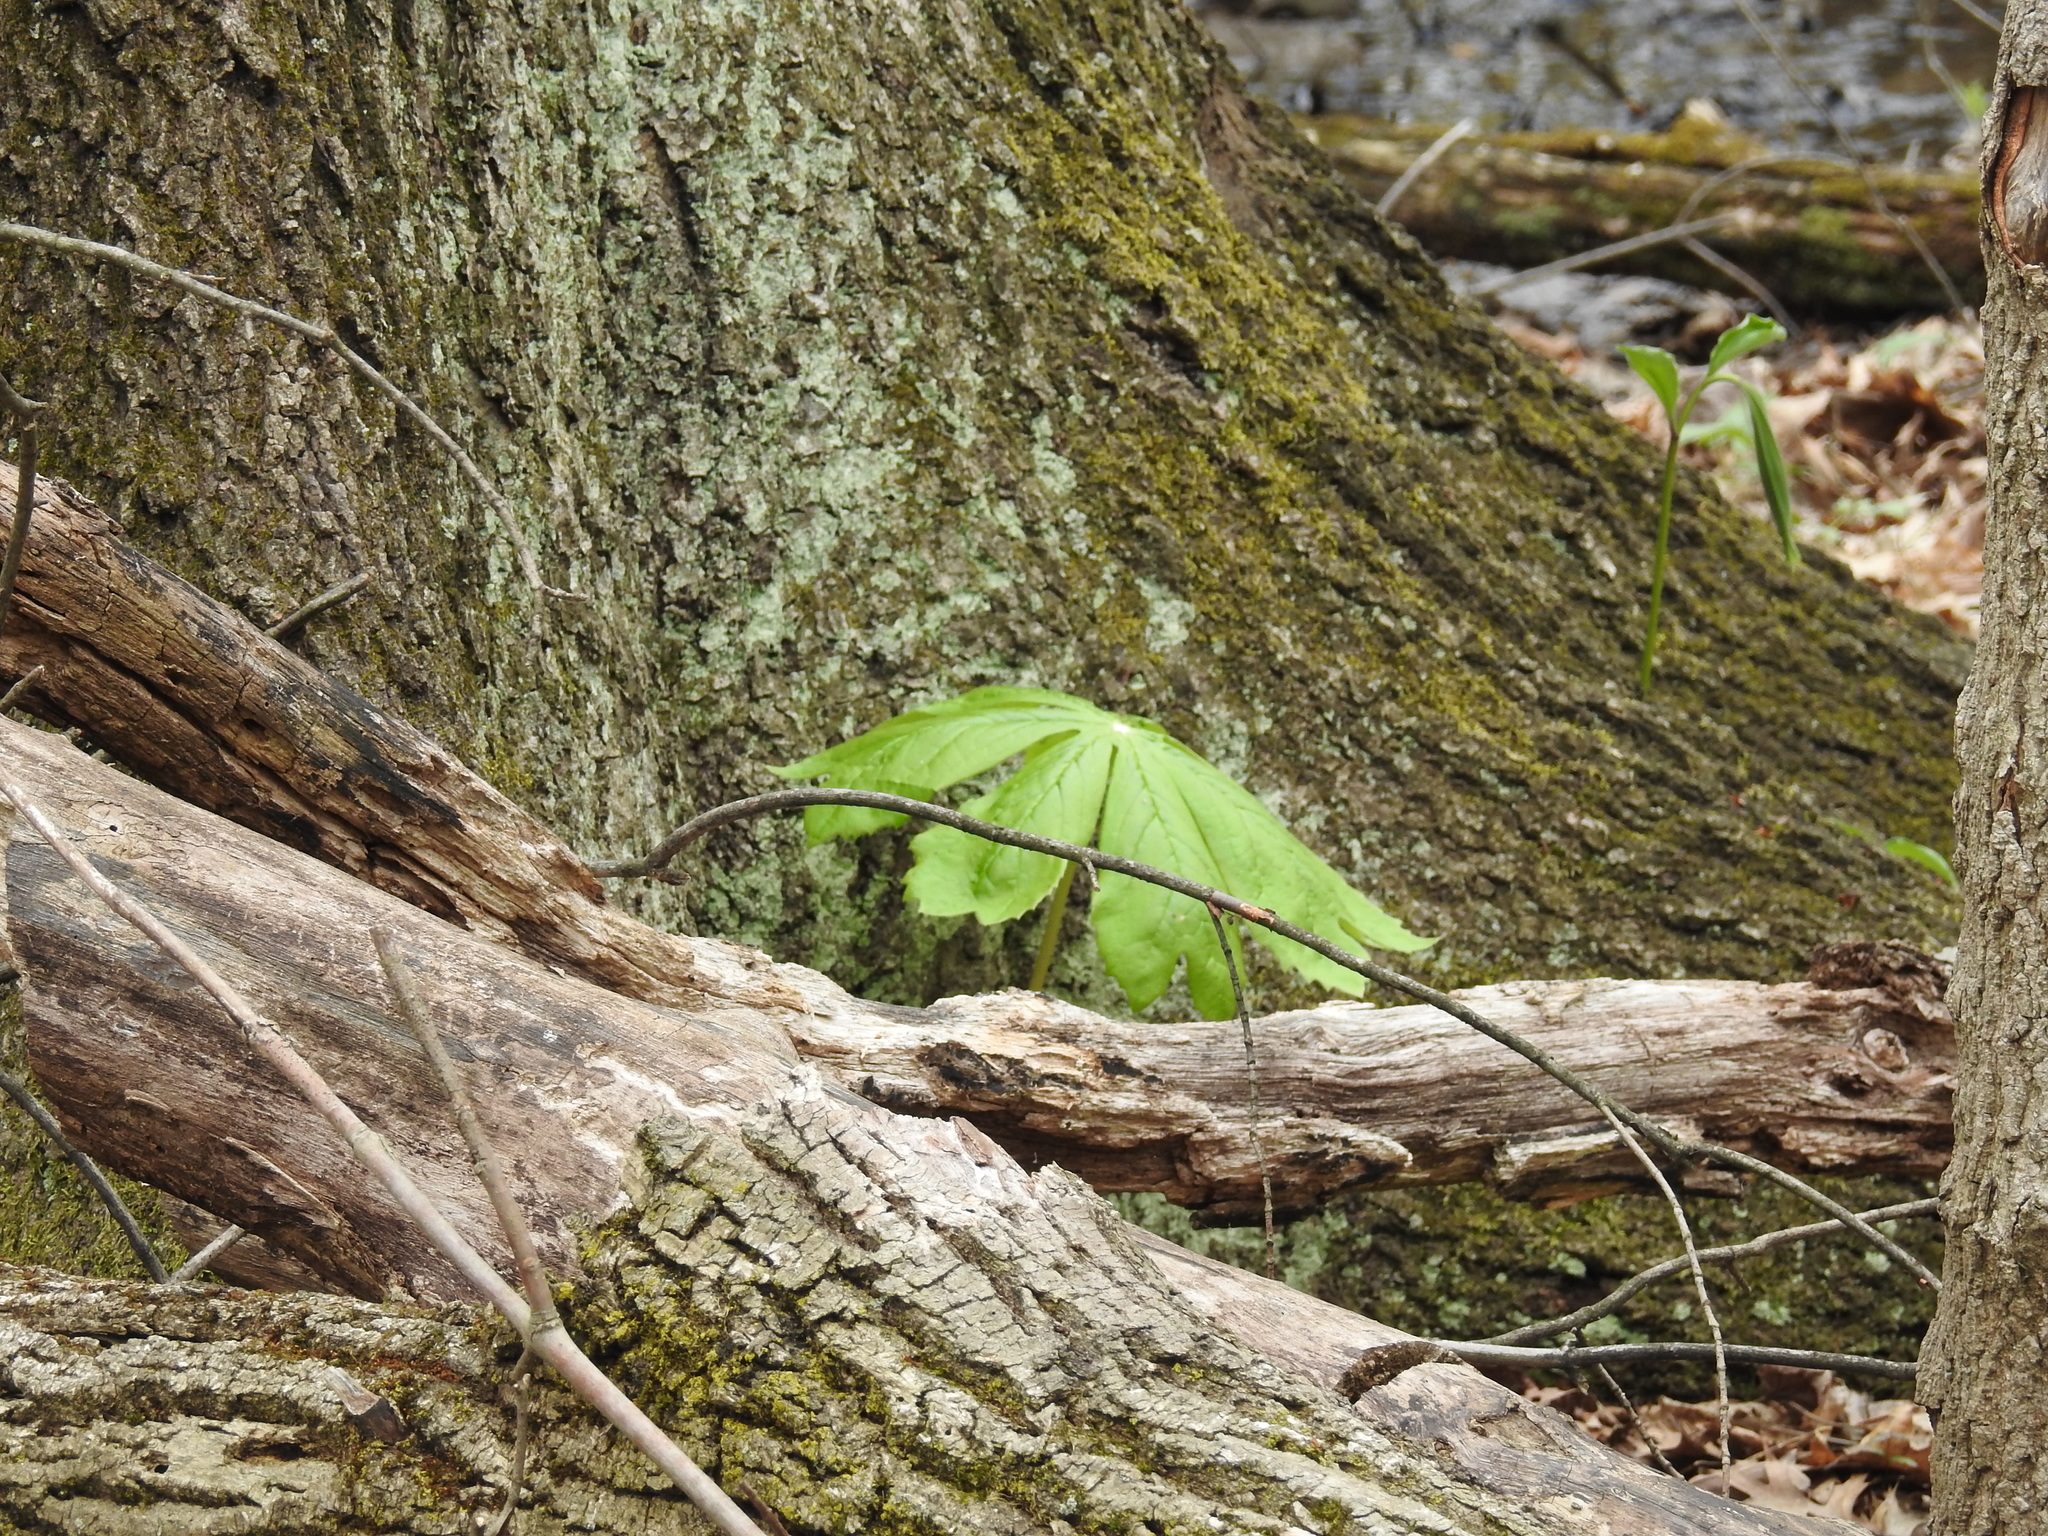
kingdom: Plantae
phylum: Tracheophyta
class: Magnoliopsida
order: Ranunculales
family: Berberidaceae
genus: Podophyllum
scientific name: Podophyllum peltatum
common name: Wild mandrake
